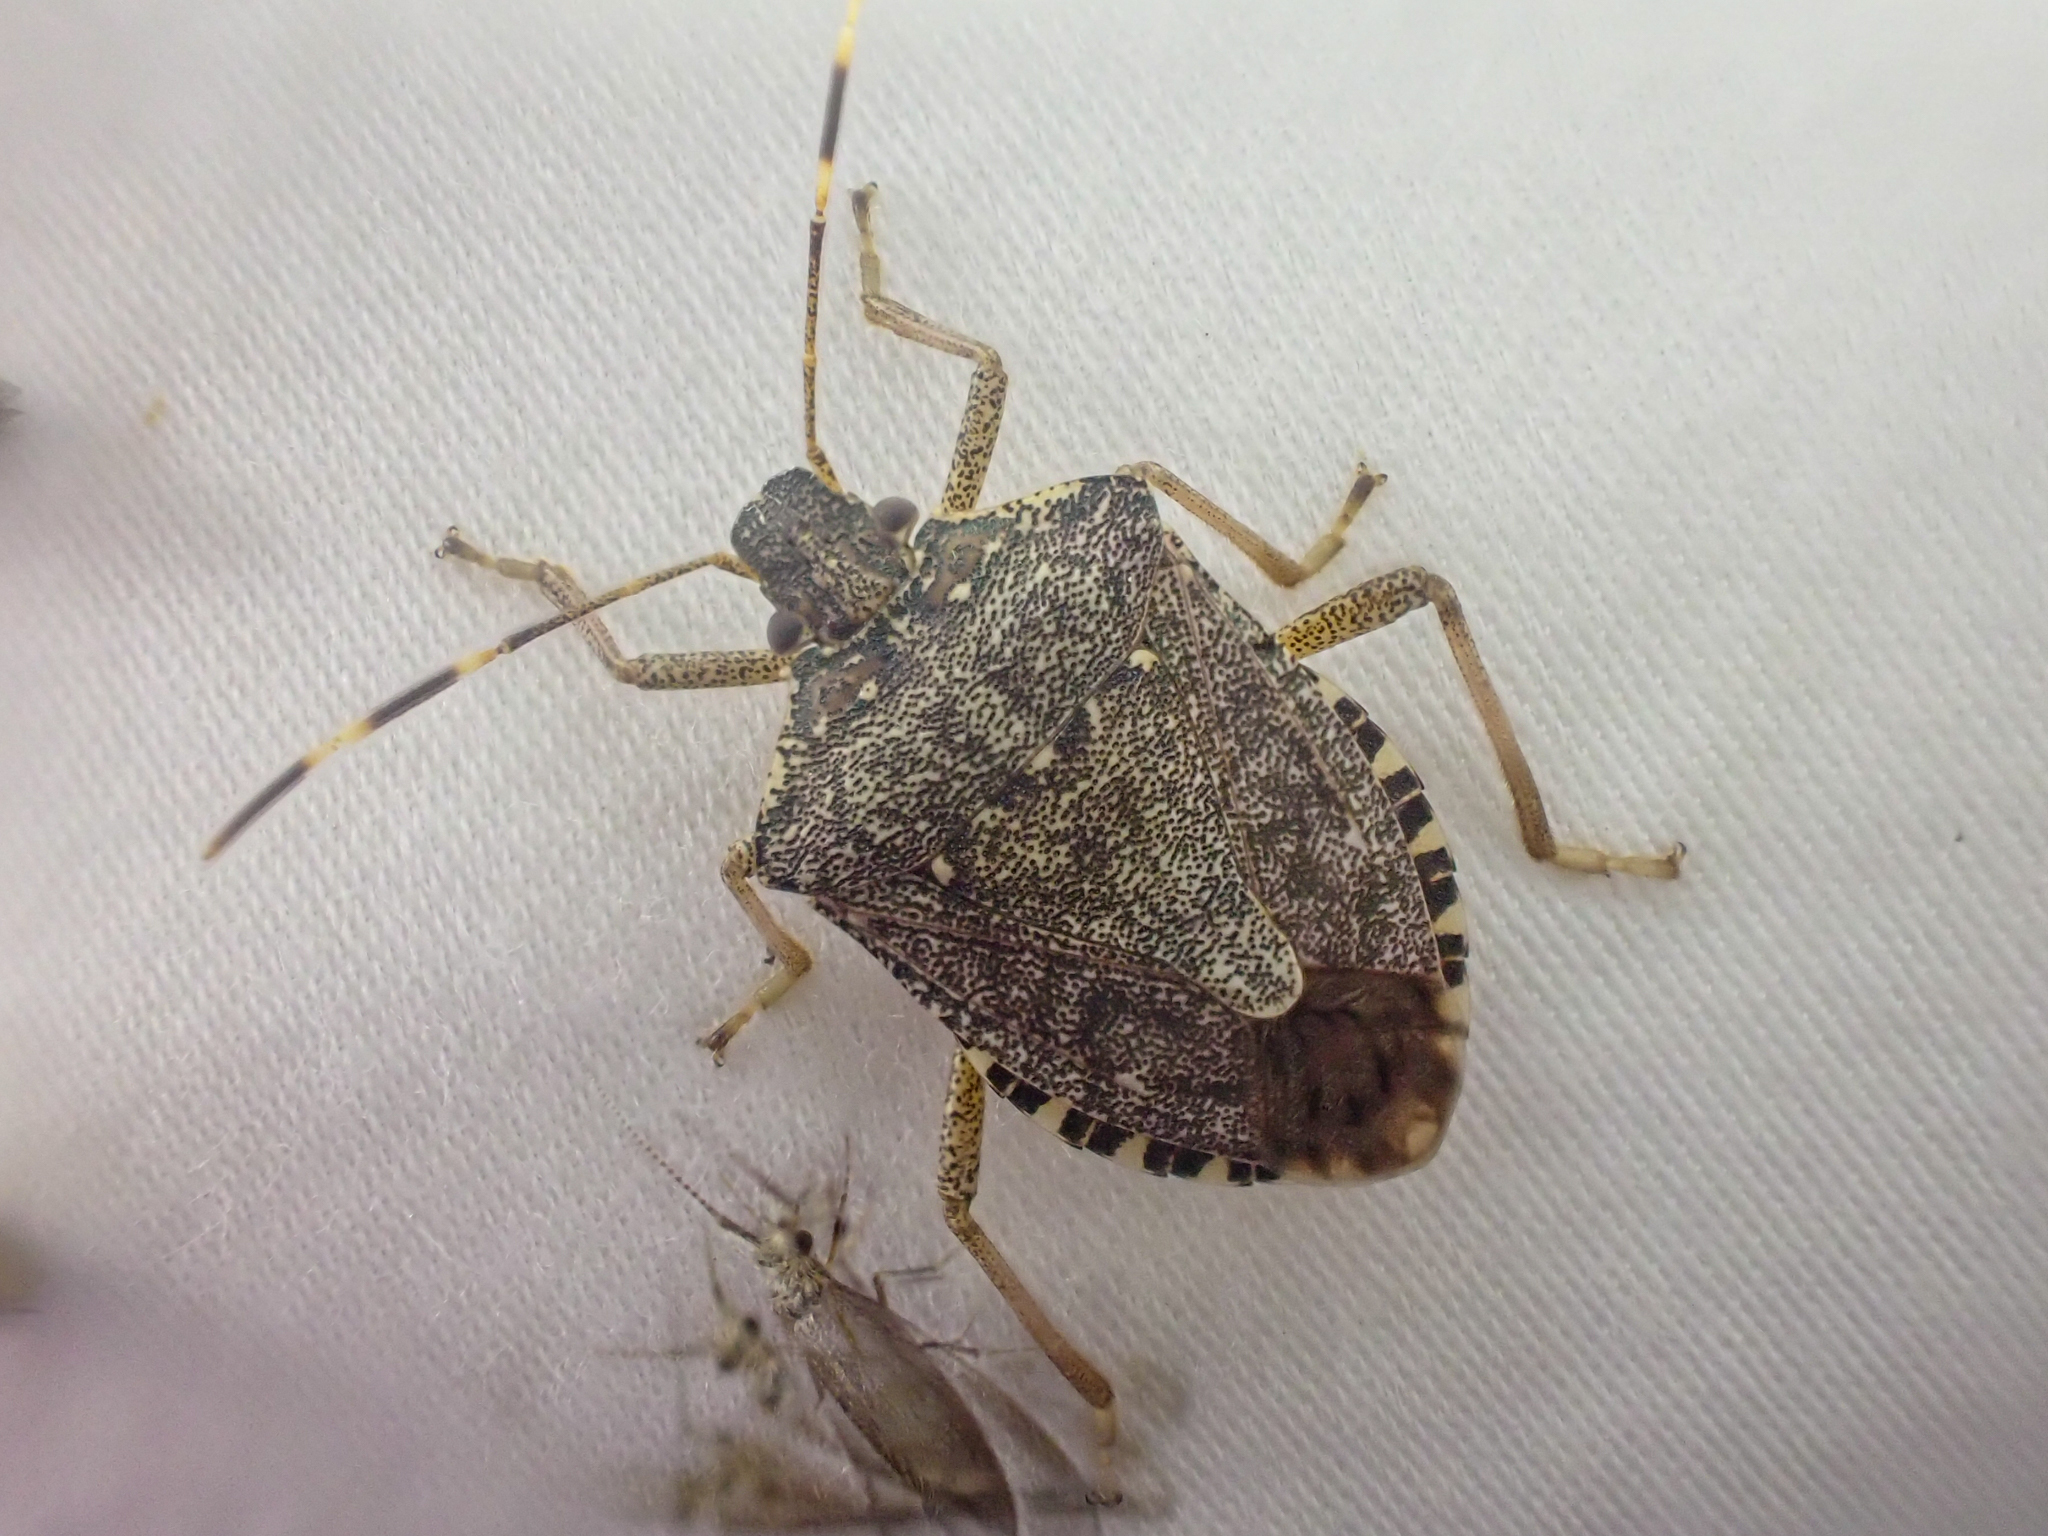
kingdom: Animalia
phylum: Arthropoda
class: Insecta
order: Hemiptera
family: Pentatomidae
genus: Halyomorpha
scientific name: Halyomorpha halys
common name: Brown marmorated stink bug
